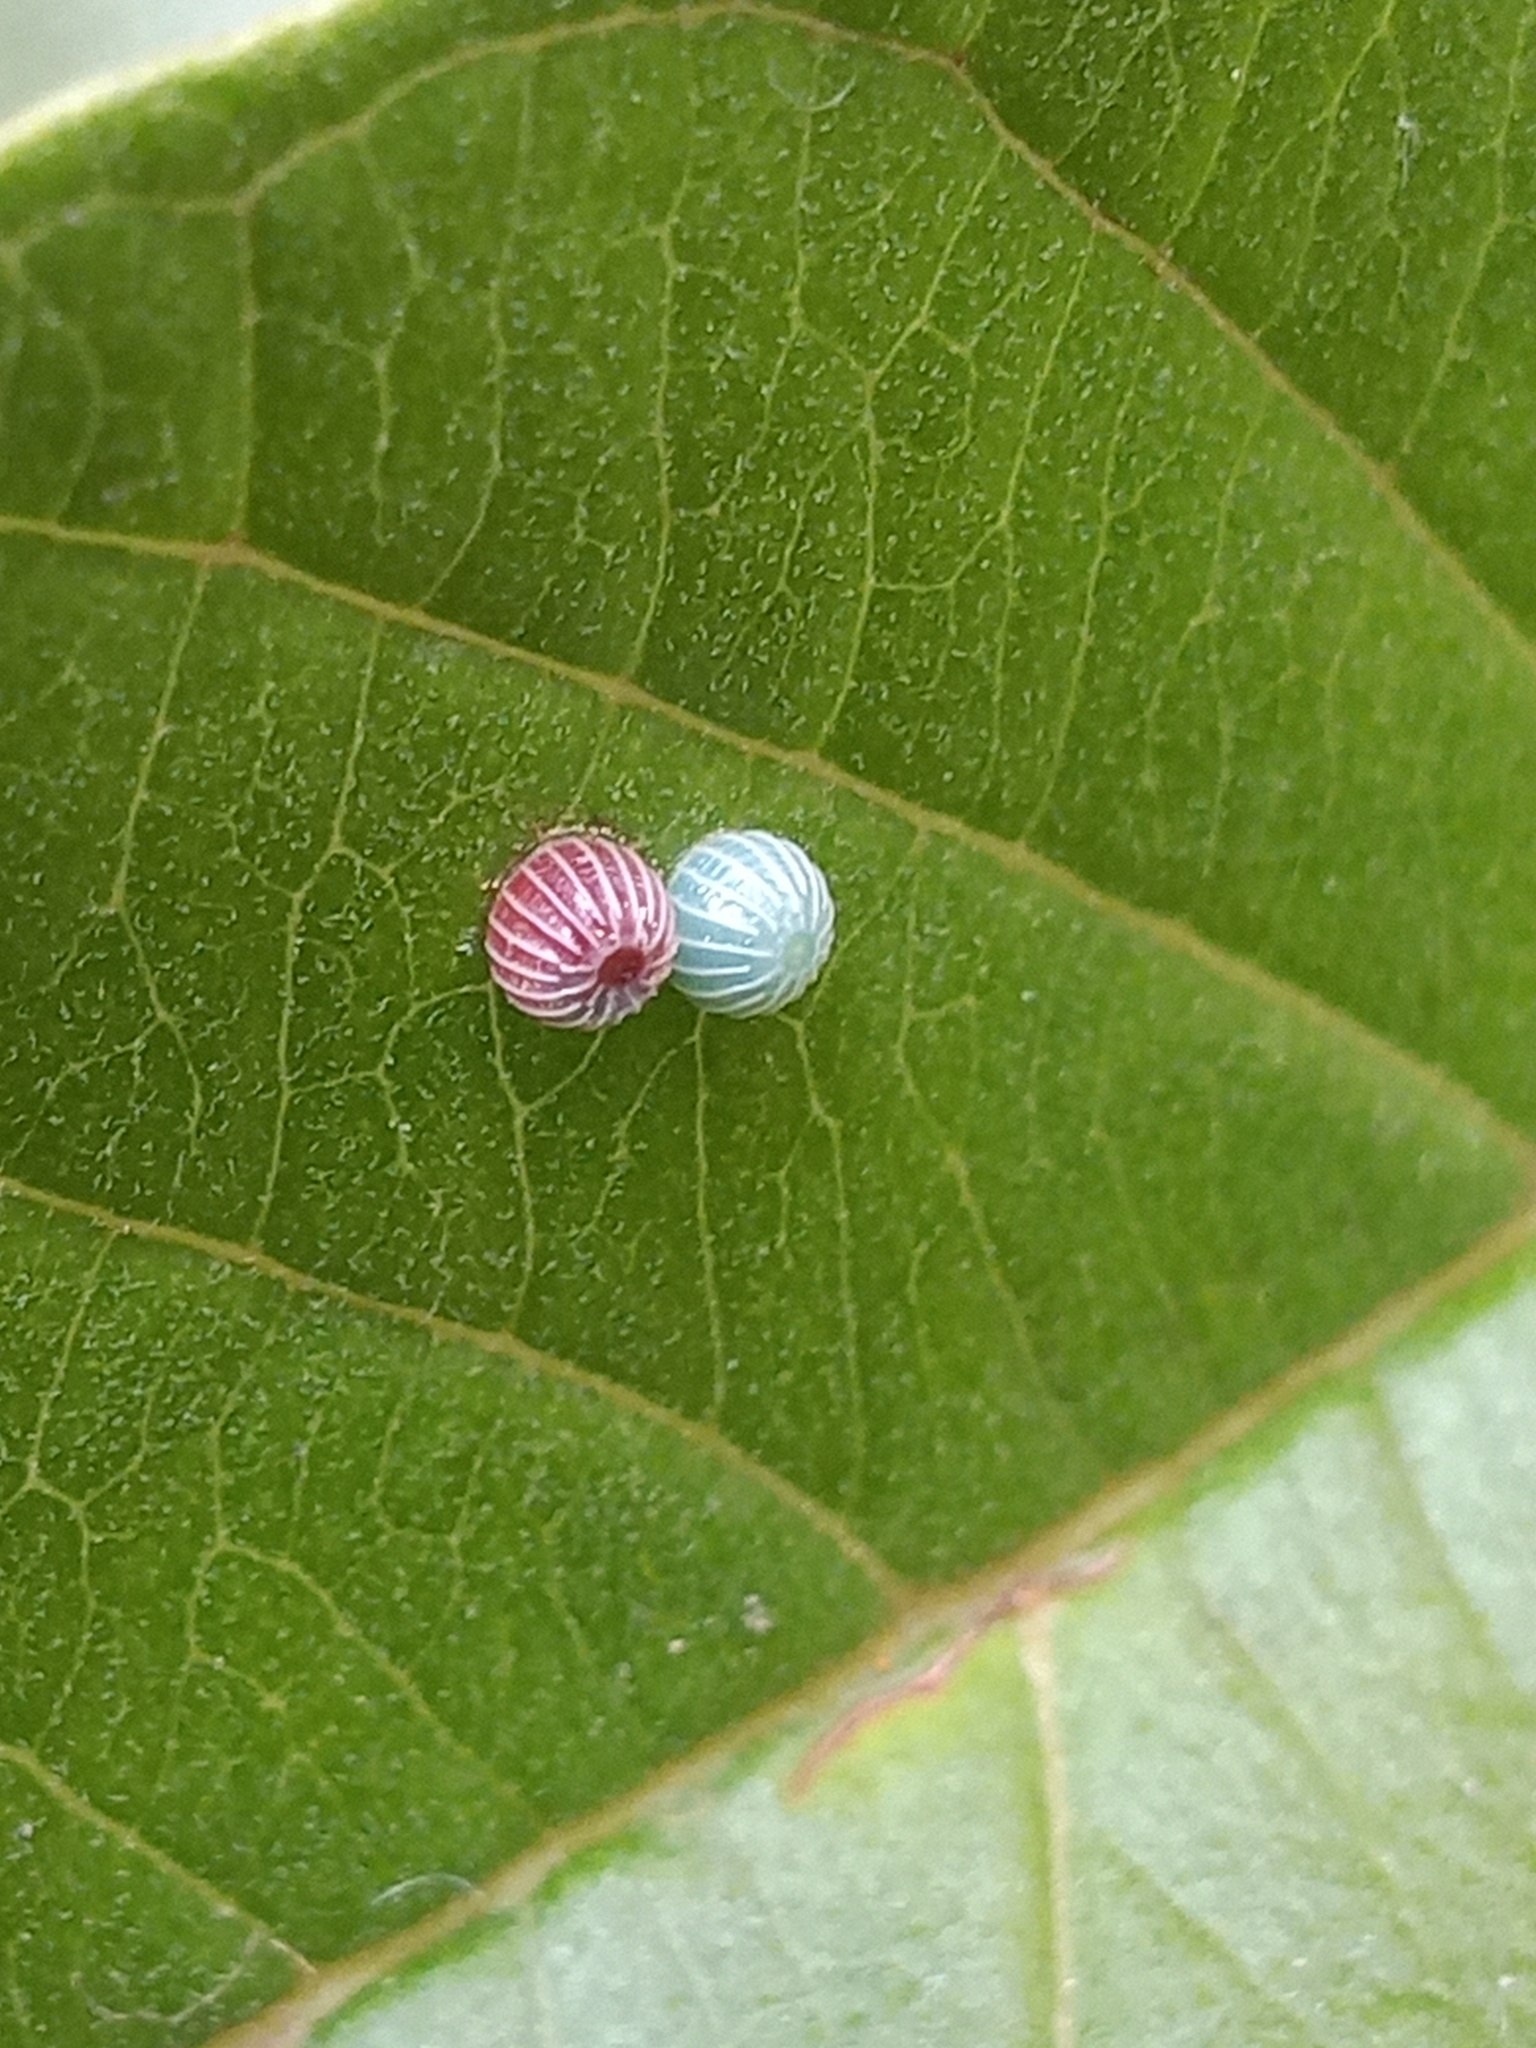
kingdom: Animalia
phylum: Arthropoda
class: Insecta
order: Lepidoptera
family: Hesperiidae
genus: Phocides
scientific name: Phocides lilea
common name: Guava skipper
